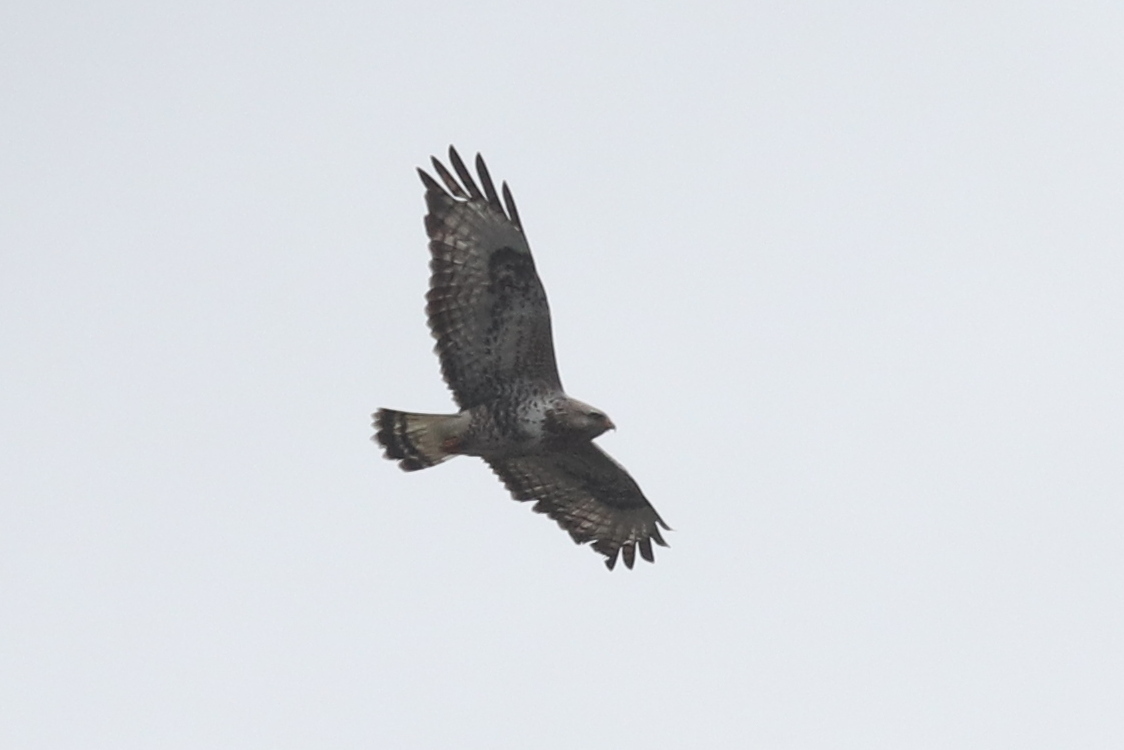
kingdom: Animalia
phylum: Chordata
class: Aves
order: Accipitriformes
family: Accipitridae
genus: Buteo
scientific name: Buteo lagopus
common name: Rough-legged buzzard
